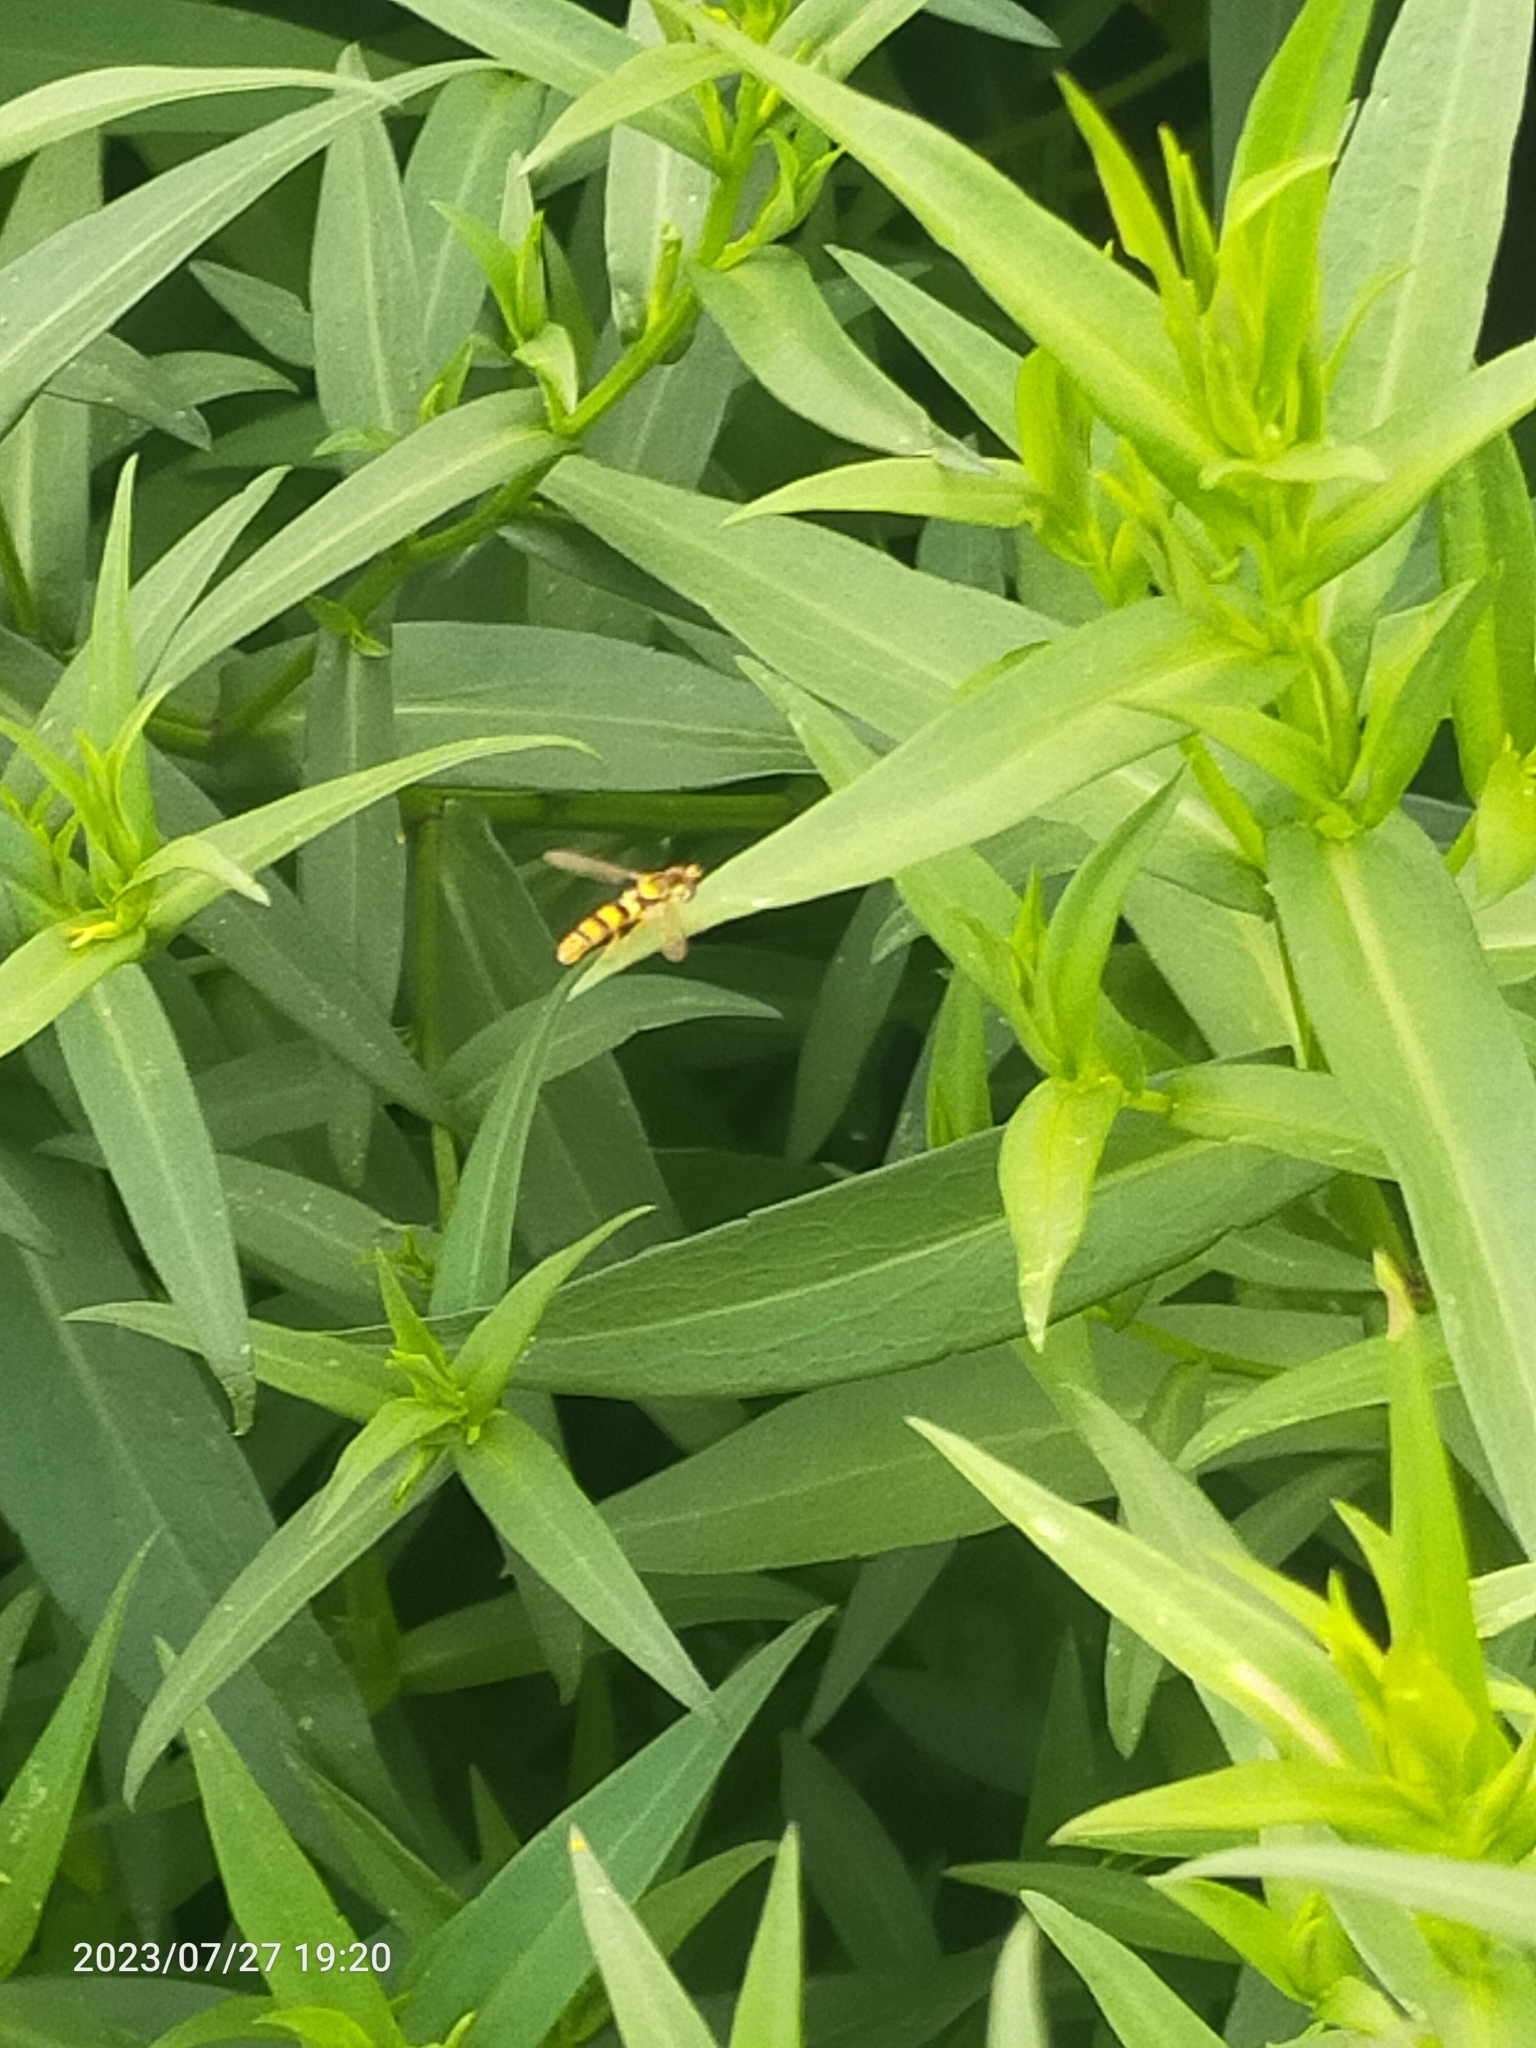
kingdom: Animalia
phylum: Arthropoda
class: Insecta
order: Diptera
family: Syrphidae
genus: Sphaerophoria
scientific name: Sphaerophoria scripta
